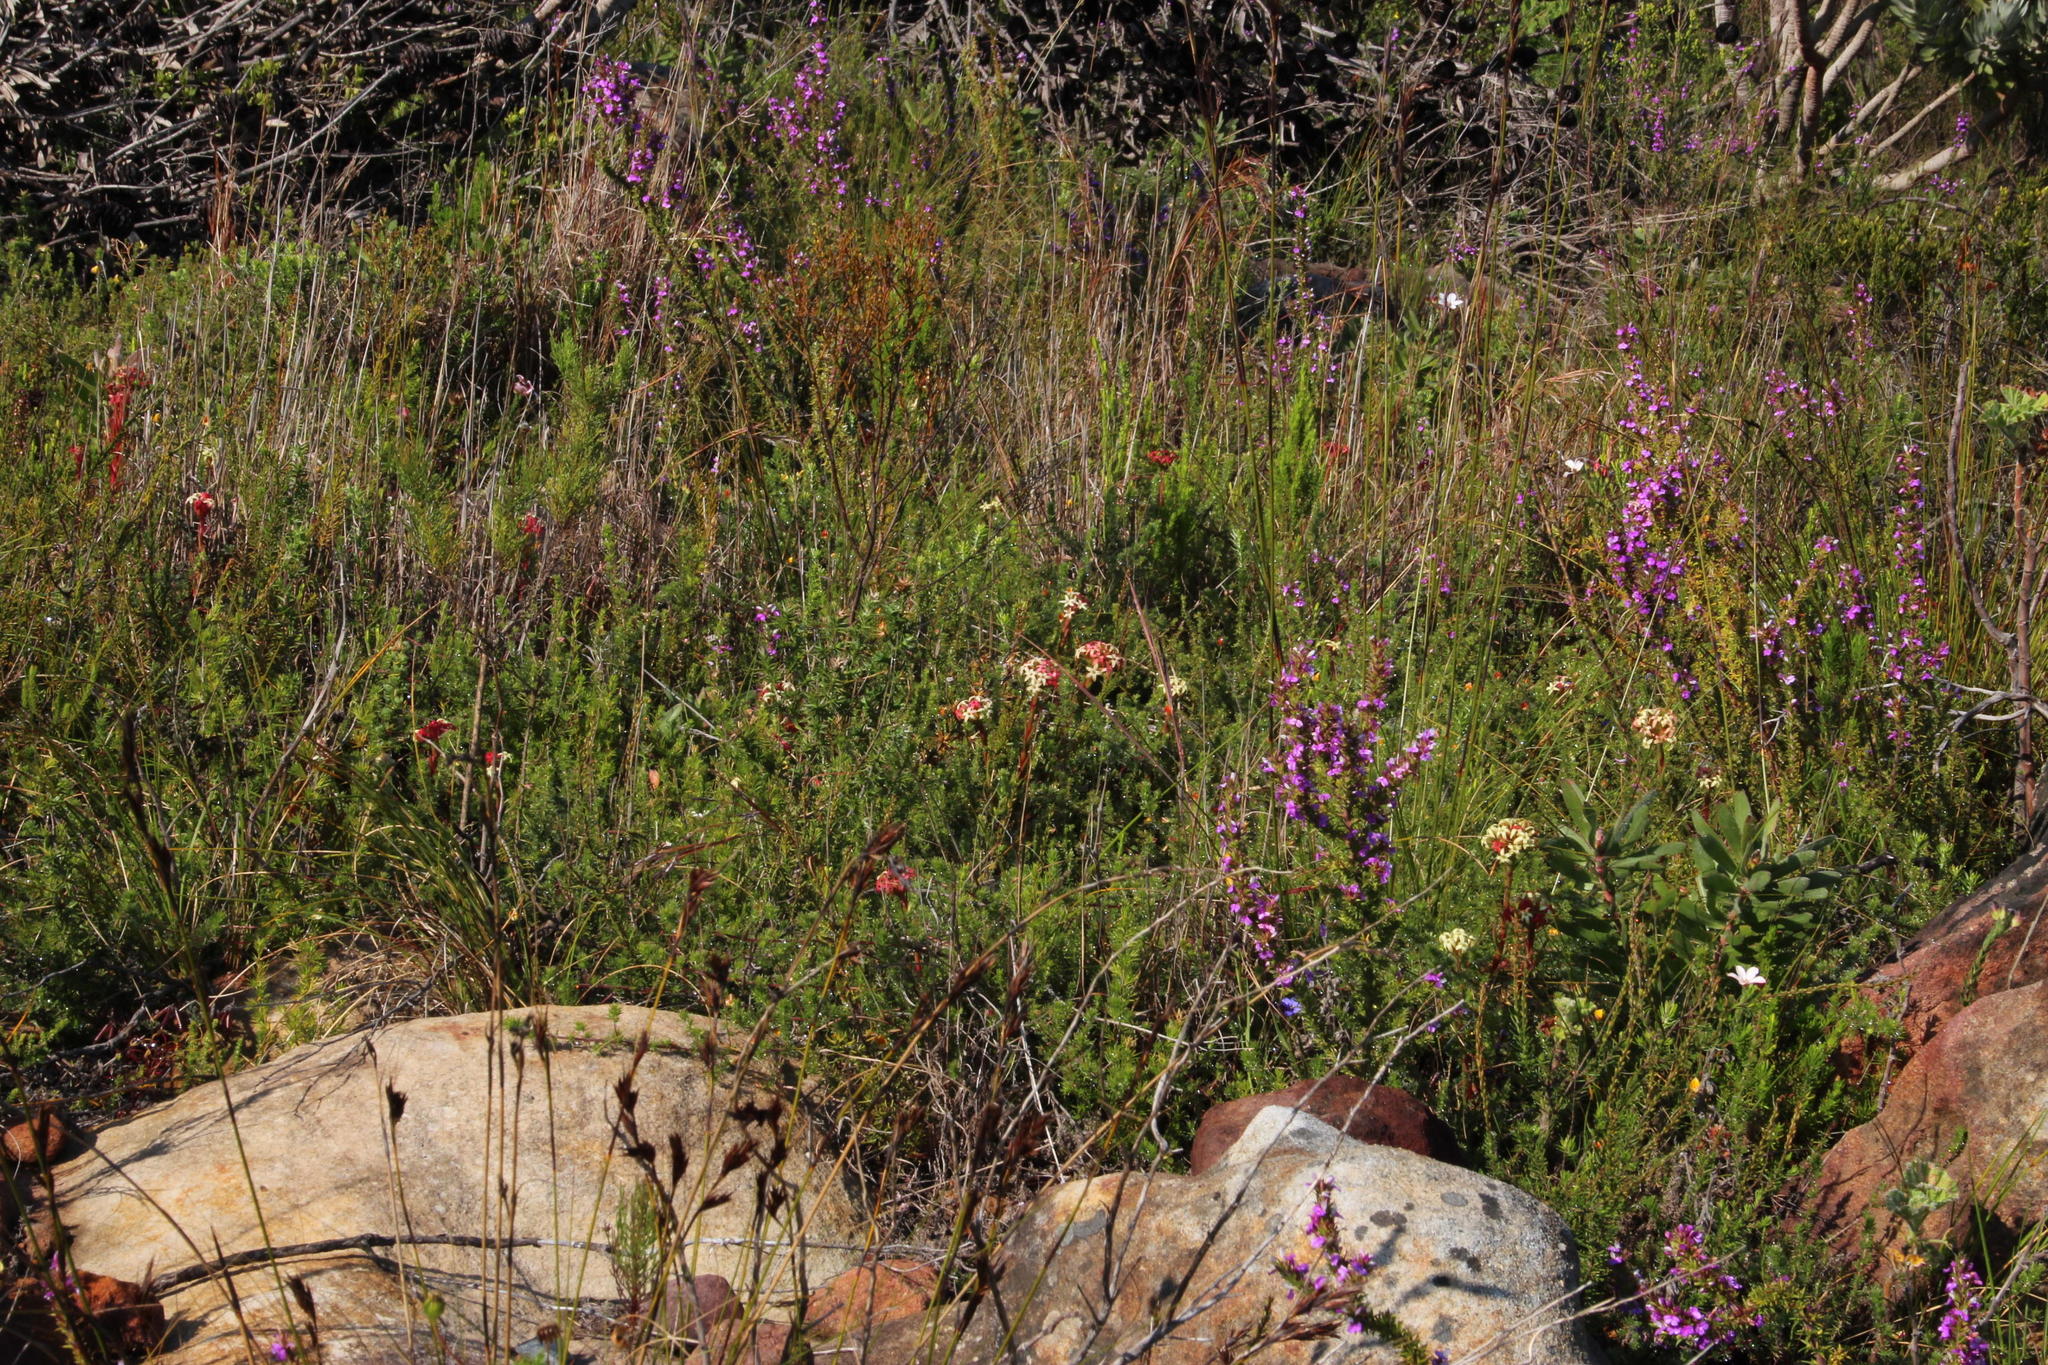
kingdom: Plantae
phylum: Tracheophyta
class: Magnoliopsida
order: Saxifragales
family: Crassulaceae
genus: Crassula
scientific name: Crassula fascicularis
